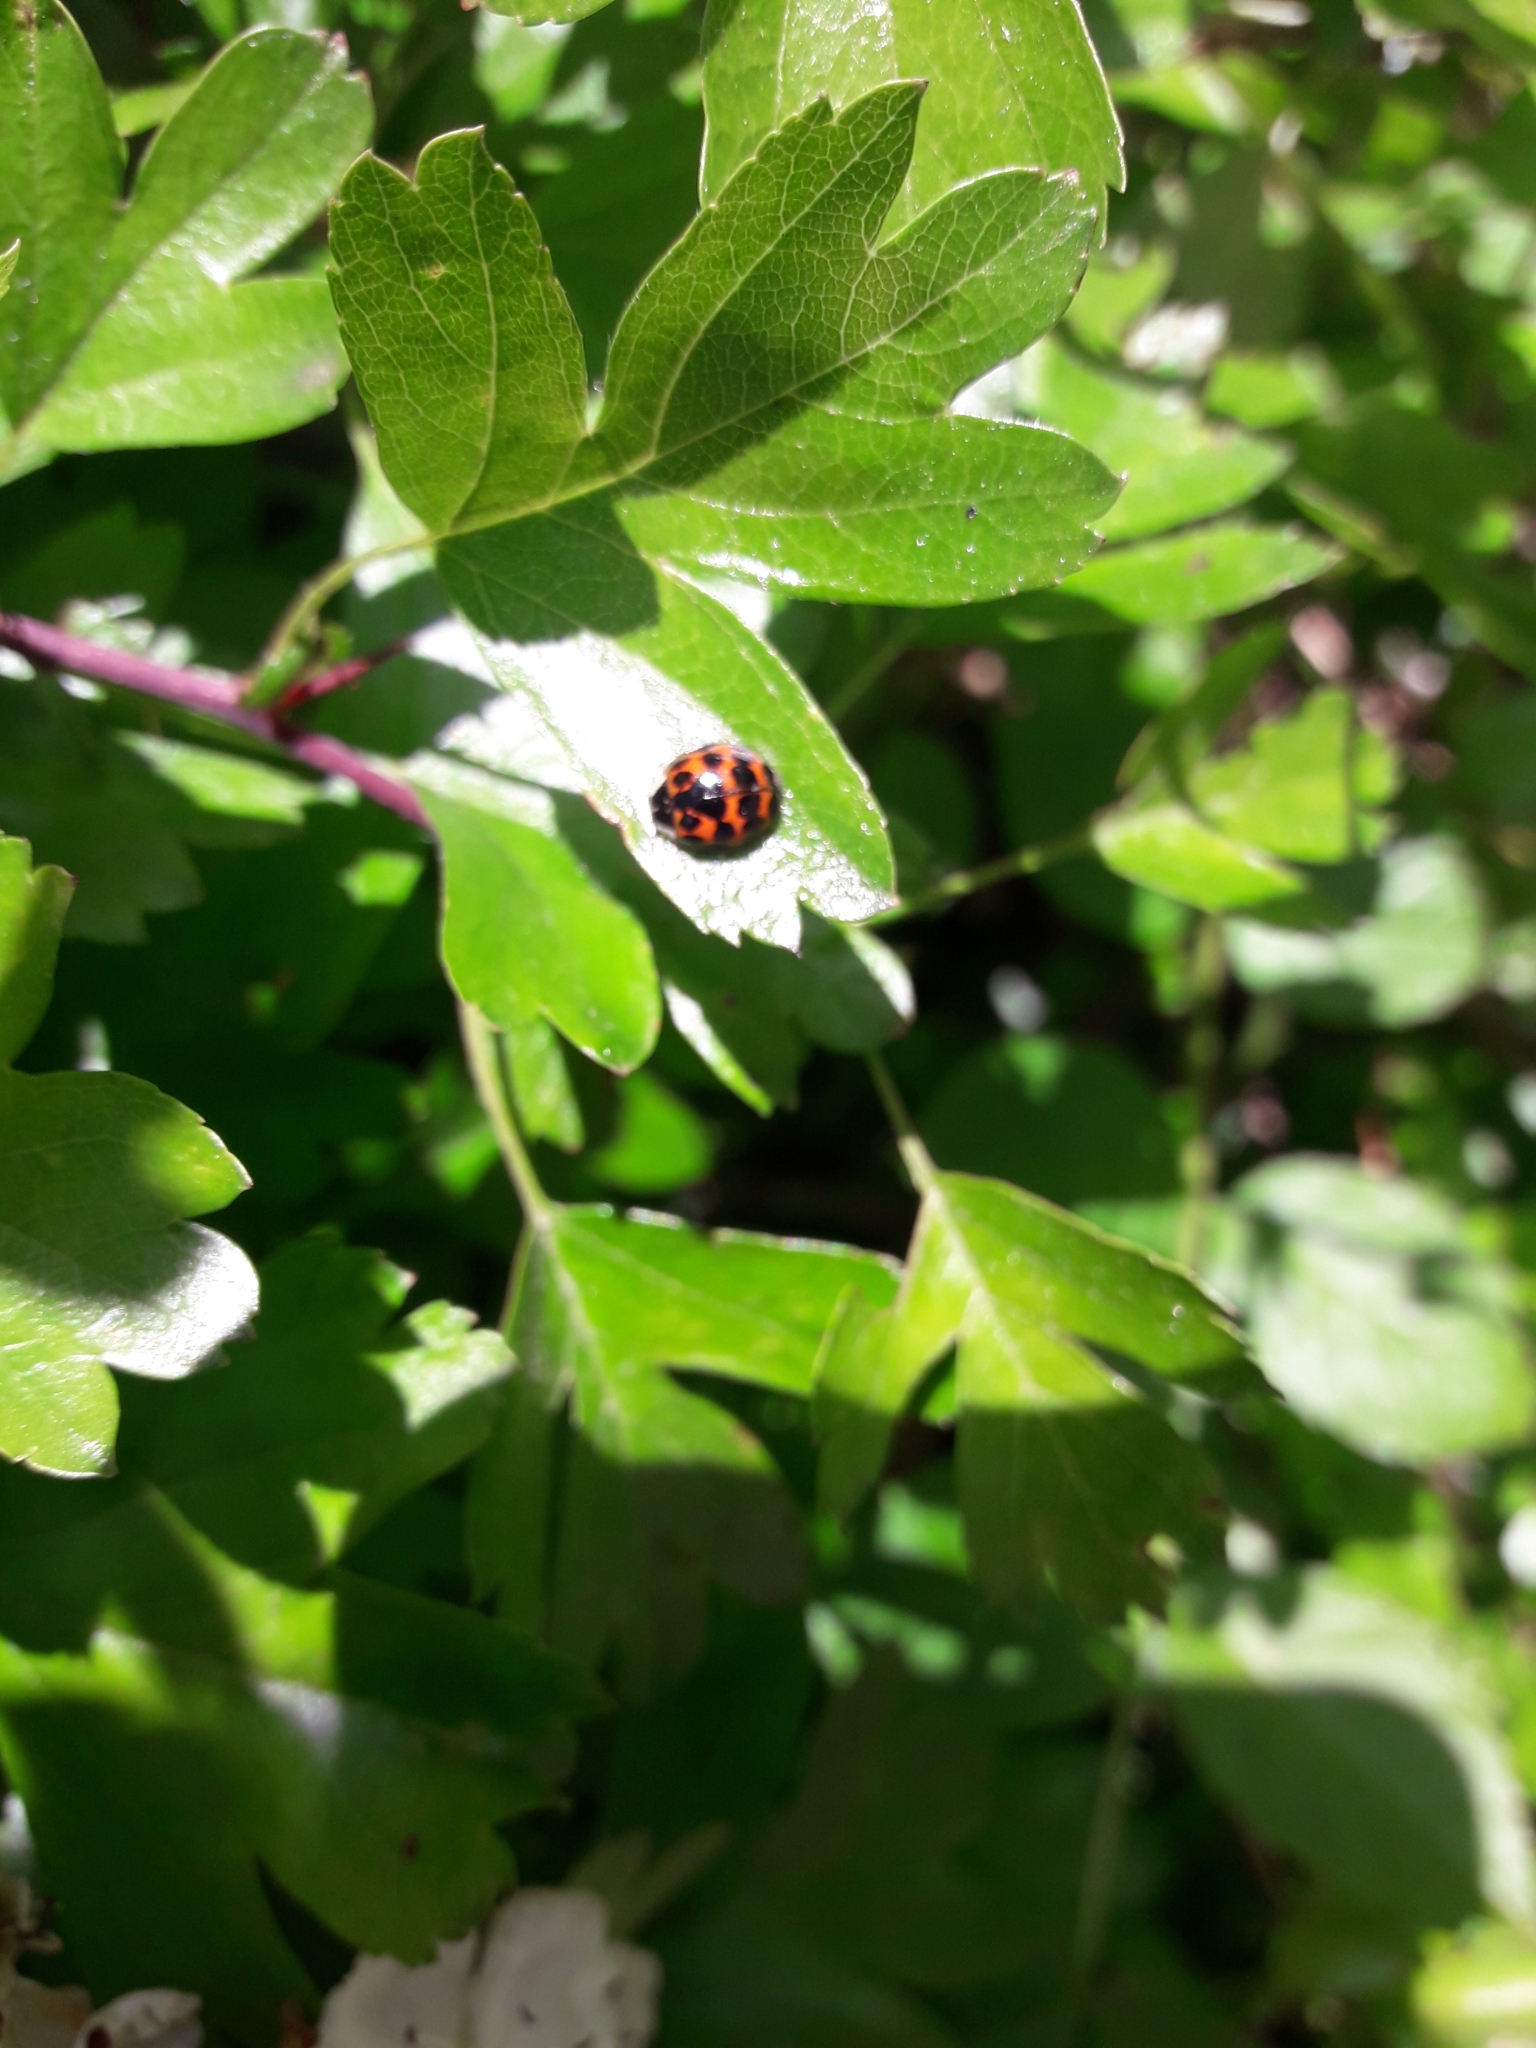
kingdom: Animalia
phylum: Arthropoda
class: Insecta
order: Coleoptera
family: Coccinellidae
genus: Harmonia
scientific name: Harmonia axyridis
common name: Harlequin ladybird
